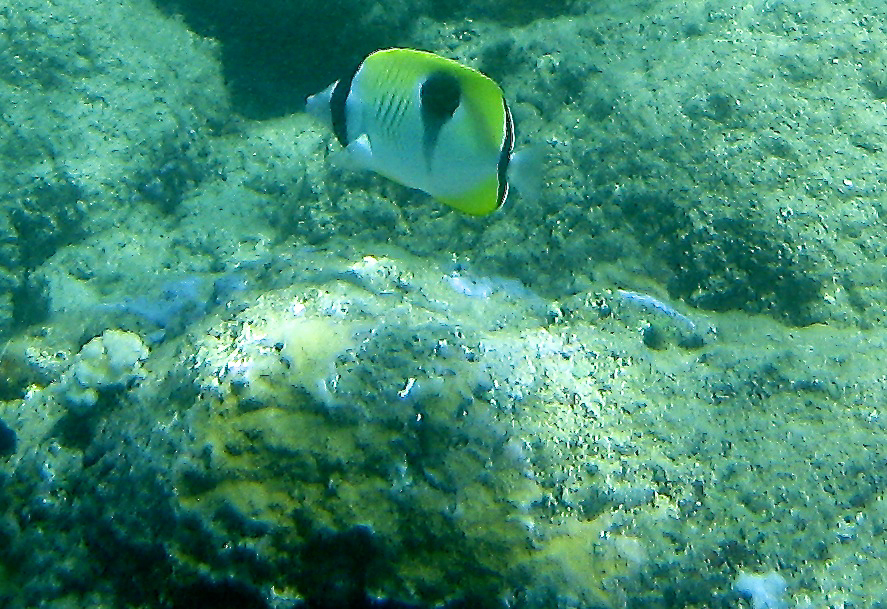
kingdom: Animalia
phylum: Chordata
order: Perciformes
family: Chaetodontidae
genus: Chaetodon
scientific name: Chaetodon unimaculatus
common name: Teardrop butterflyfish
